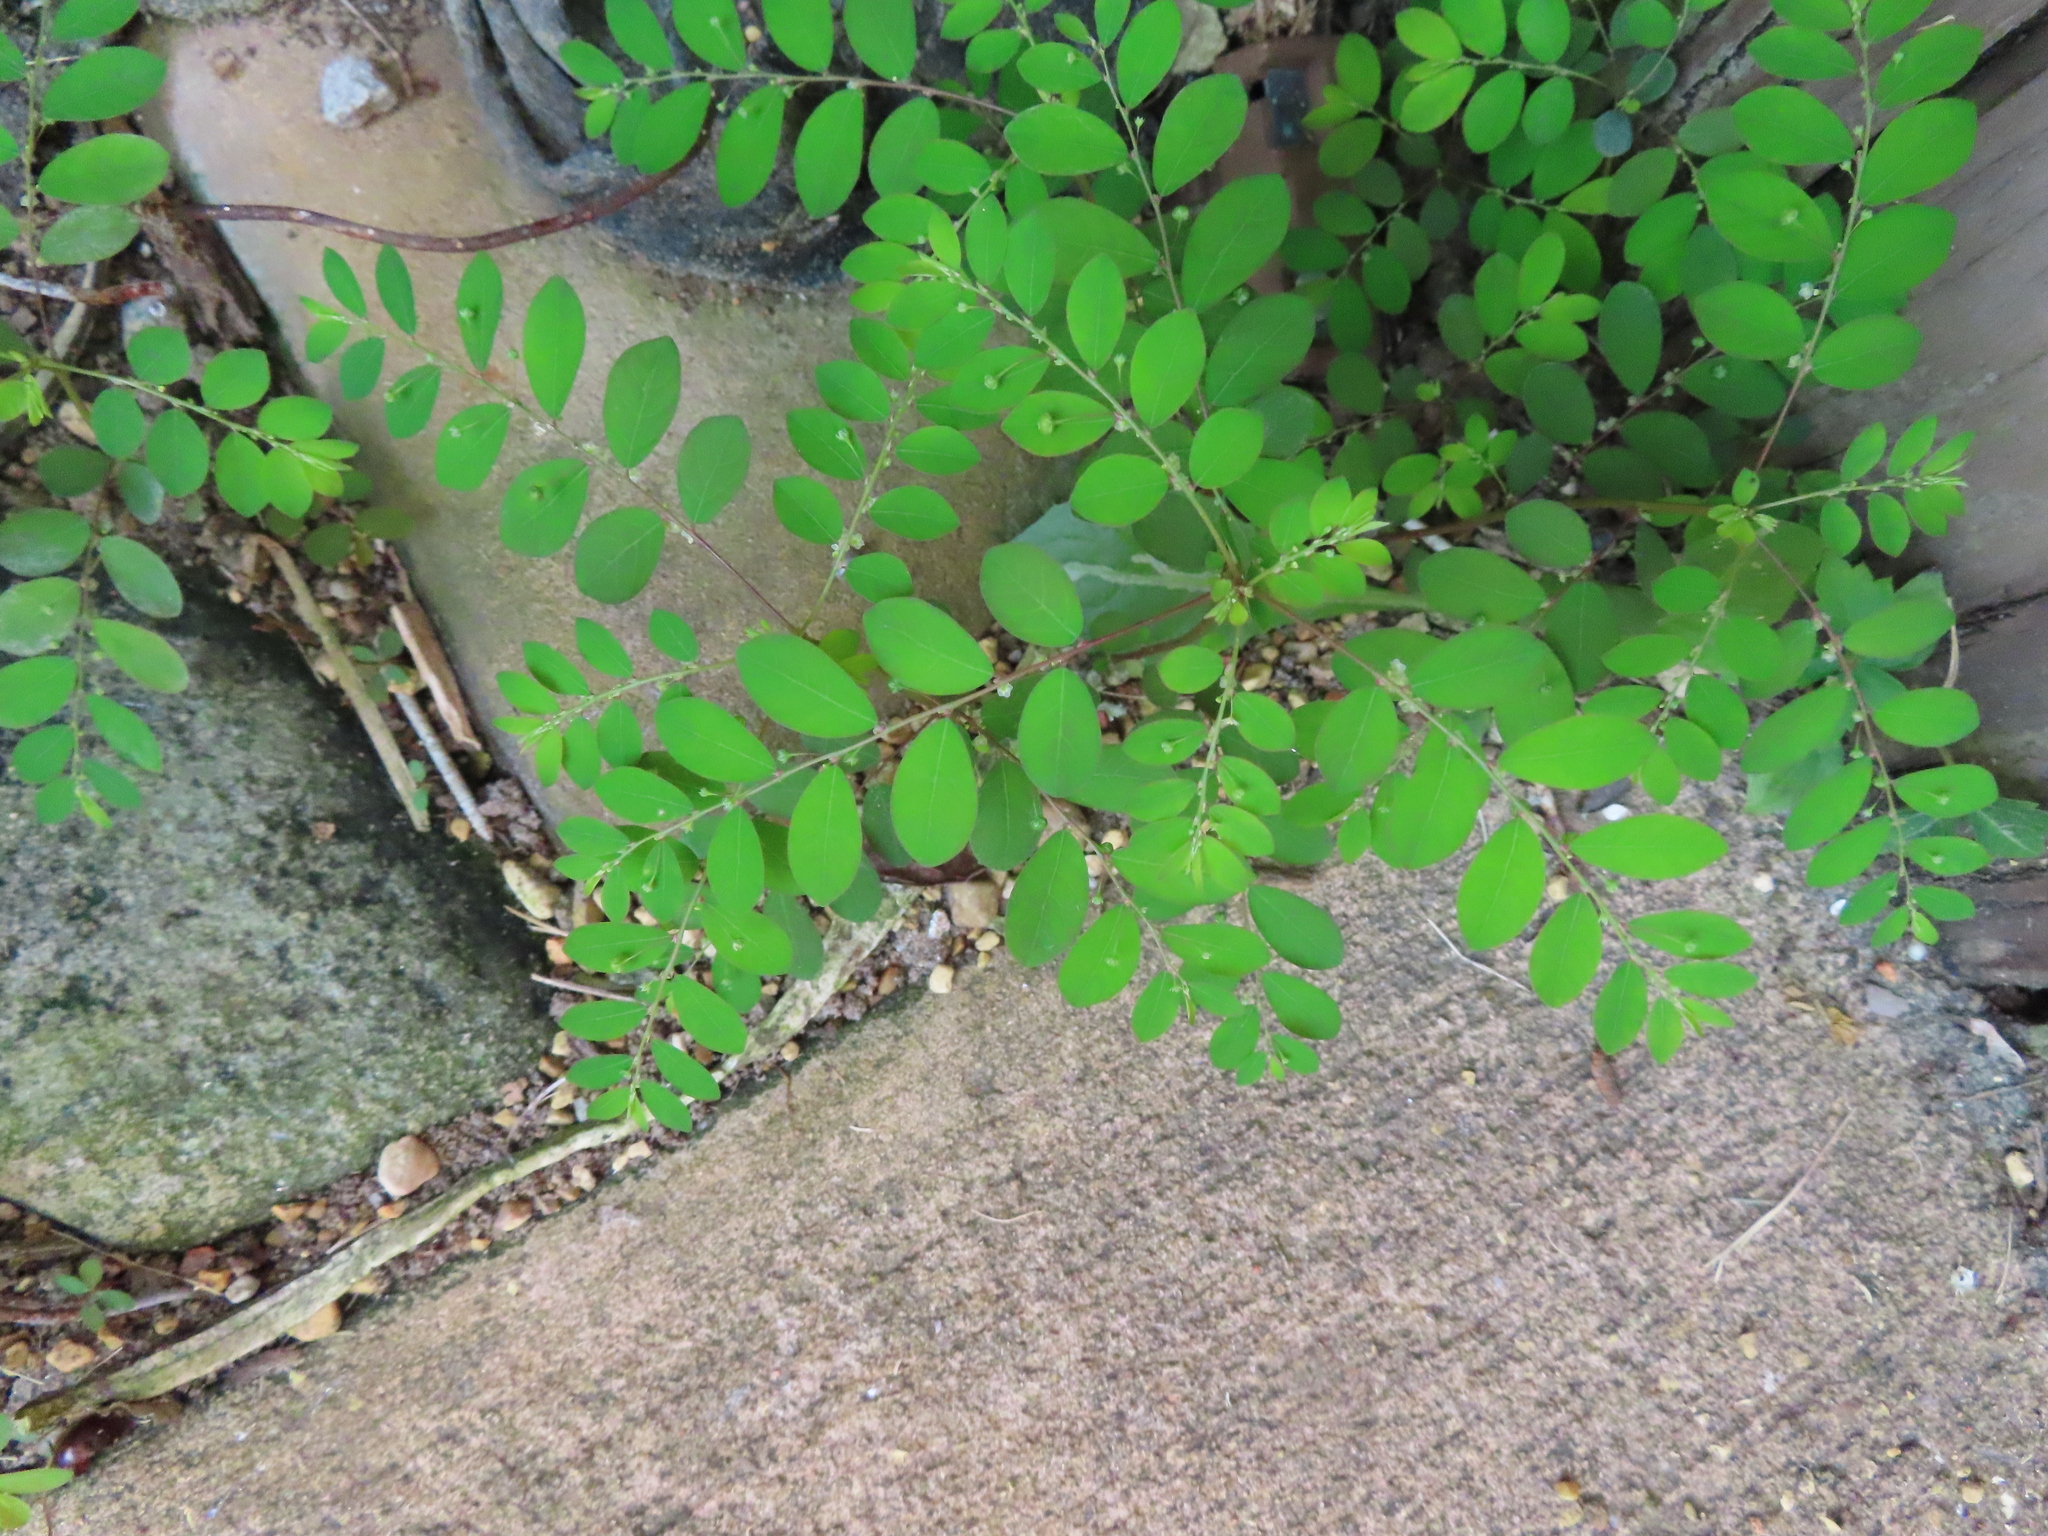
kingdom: Plantae
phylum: Tracheophyta
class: Magnoliopsida
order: Malpighiales
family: Phyllanthaceae
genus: Phyllanthus
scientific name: Phyllanthus tenellus
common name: Mascarene island leaf-flower
